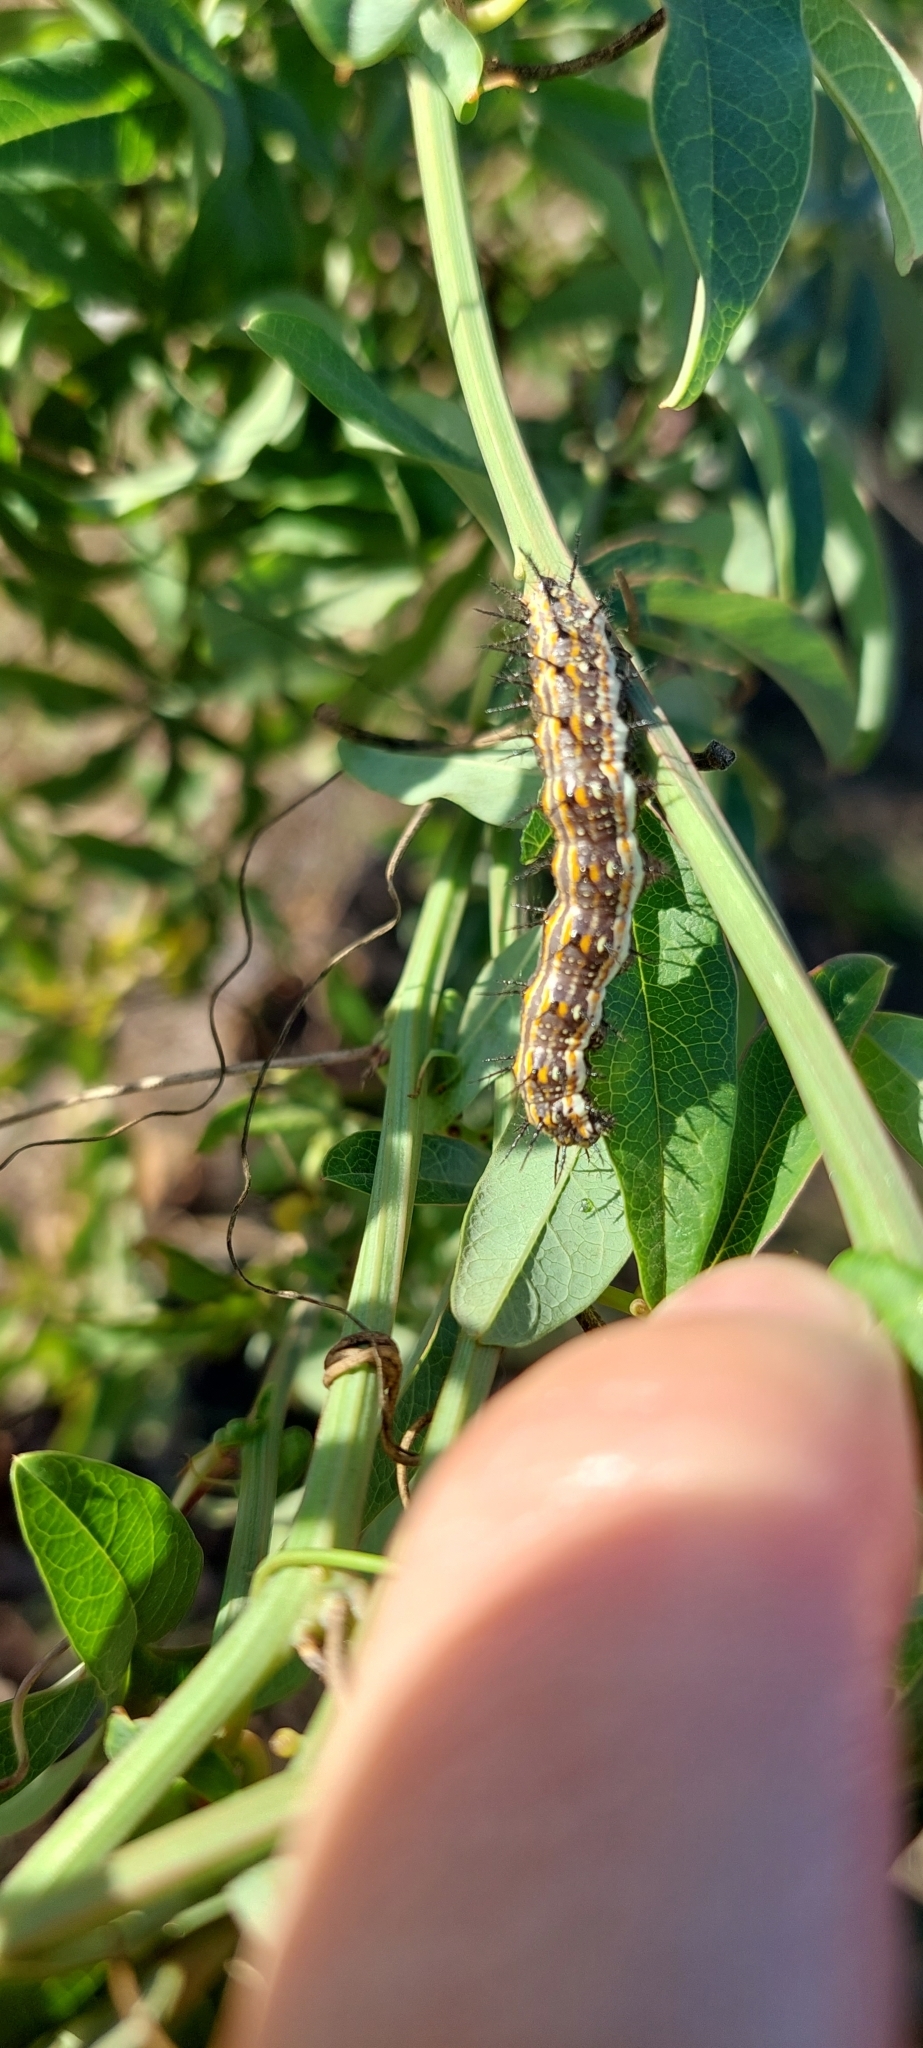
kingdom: Animalia
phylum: Arthropoda
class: Insecta
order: Lepidoptera
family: Nymphalidae
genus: Dione
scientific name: Dione vanillae
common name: Gulf fritillary
